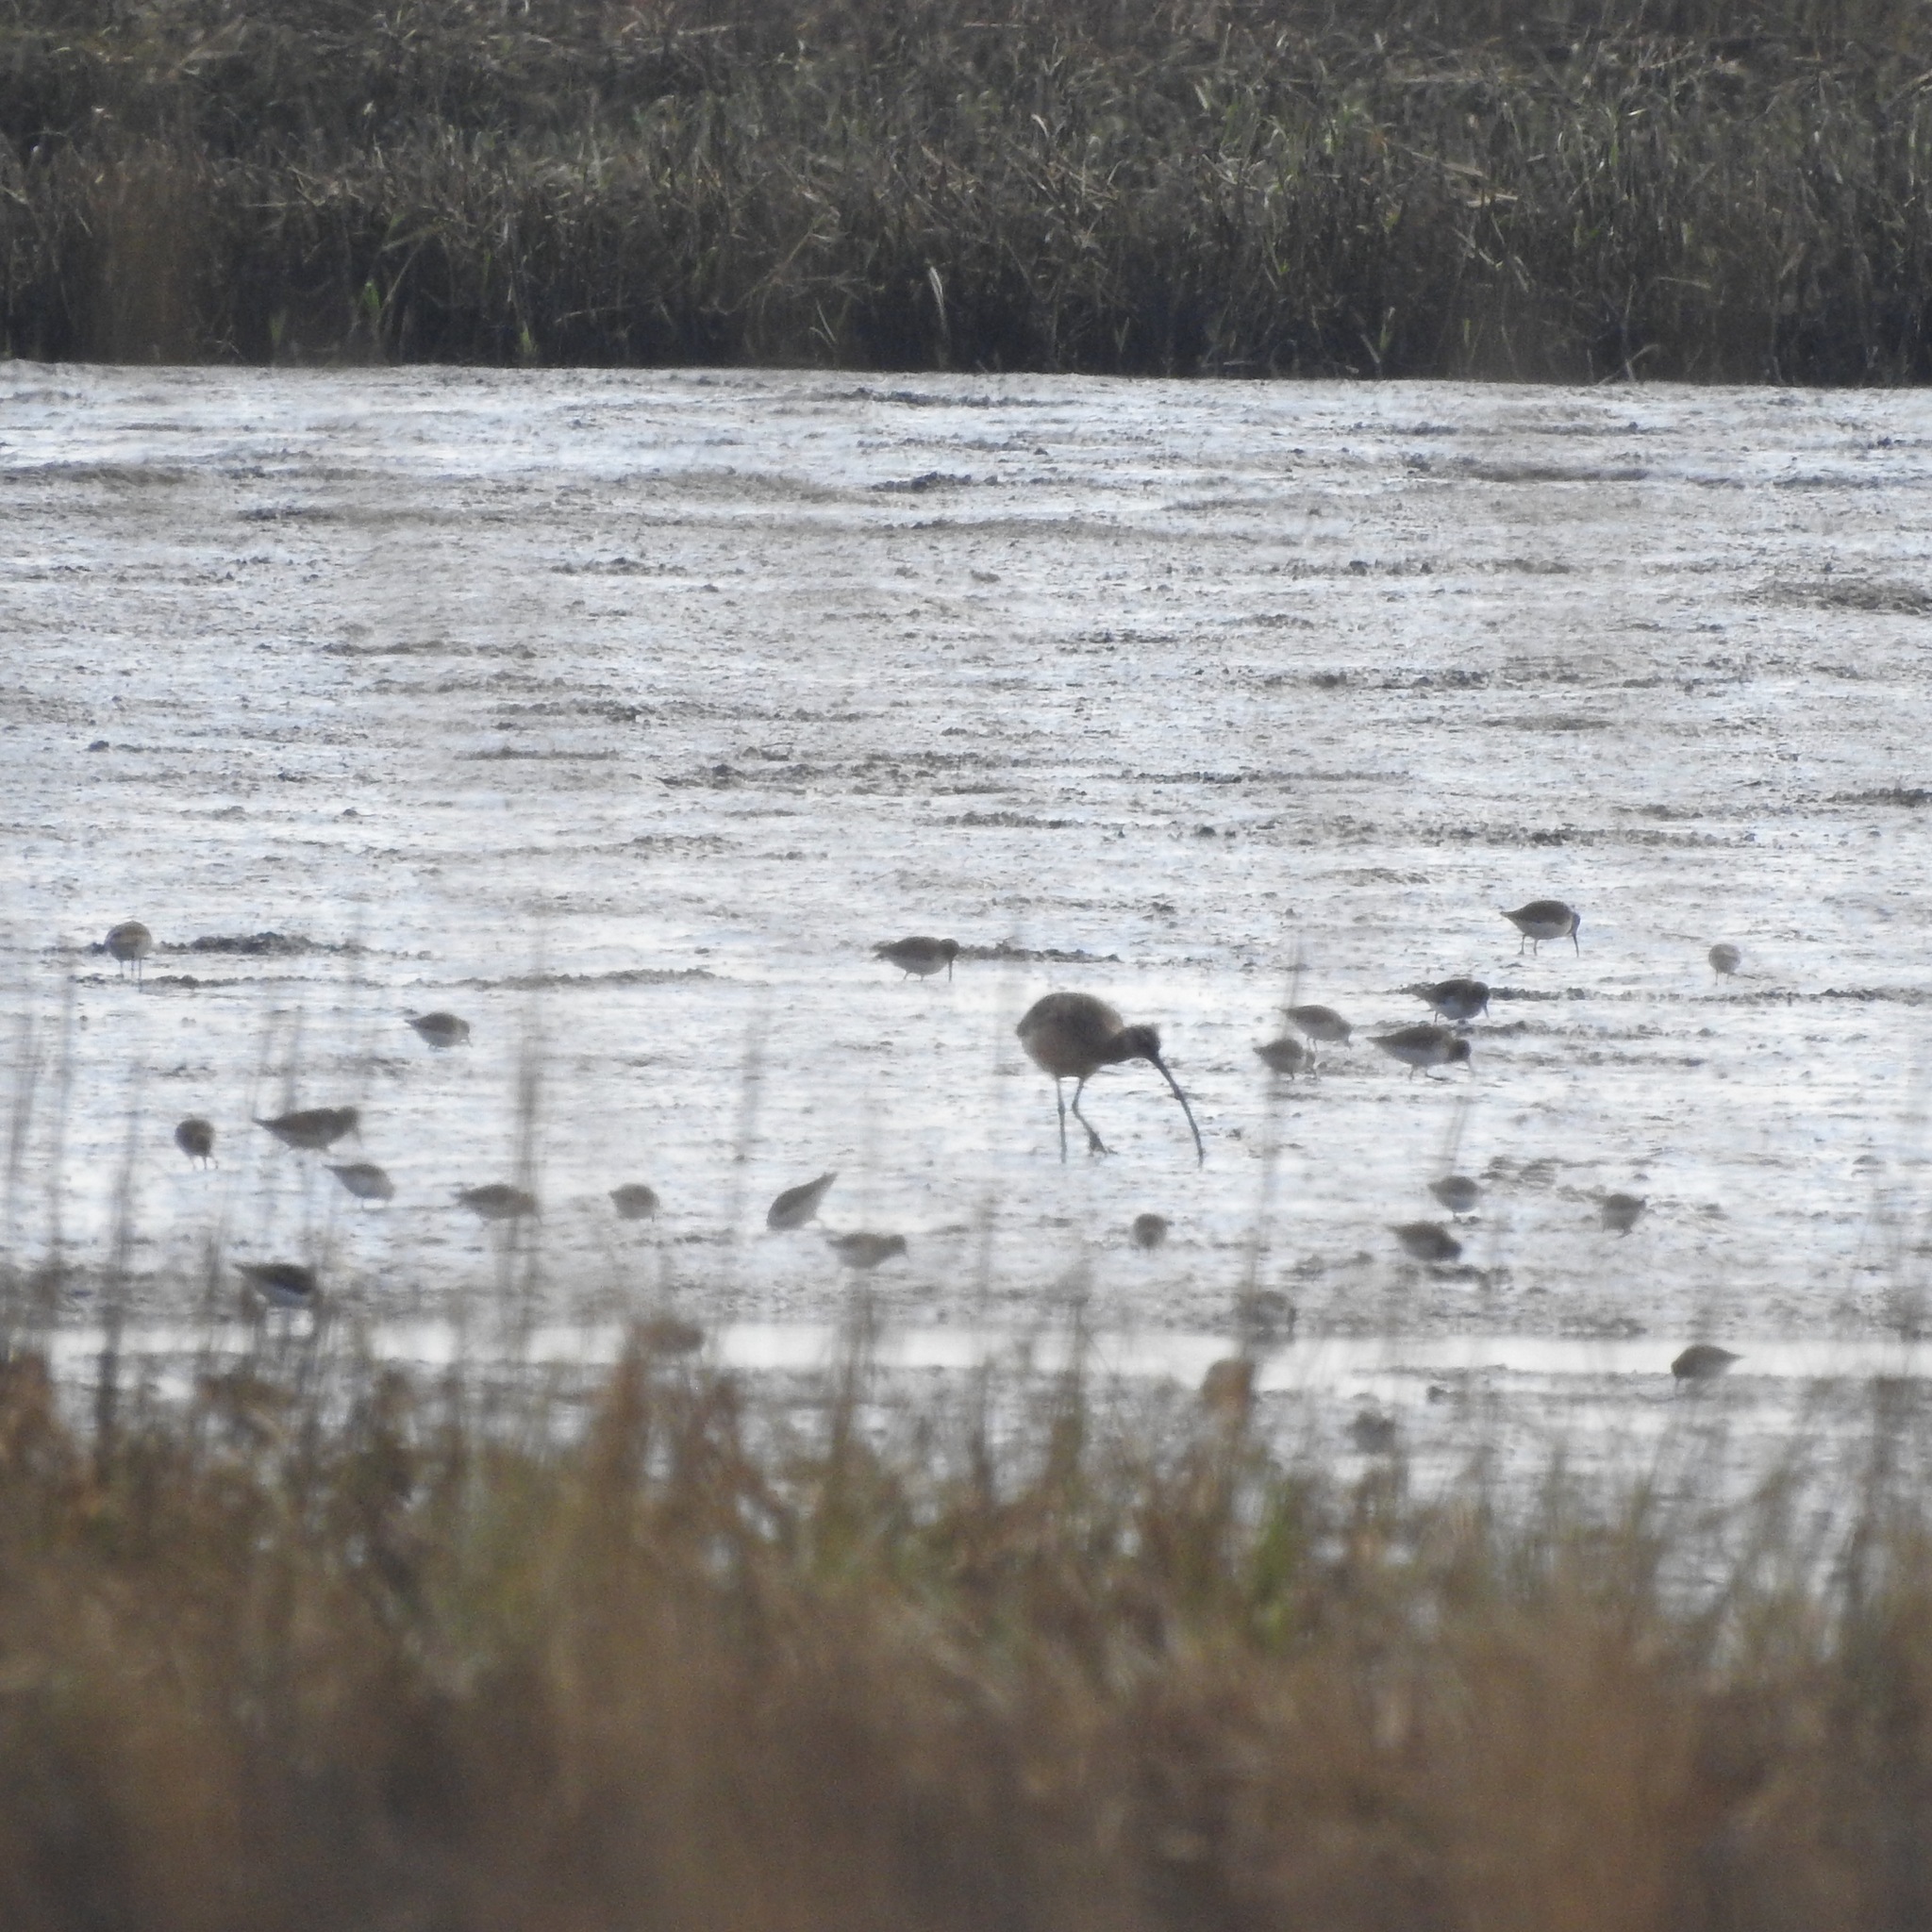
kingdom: Animalia
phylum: Chordata
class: Aves
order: Charadriiformes
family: Scolopacidae
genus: Numenius
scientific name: Numenius americanus
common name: Long-billed curlew
